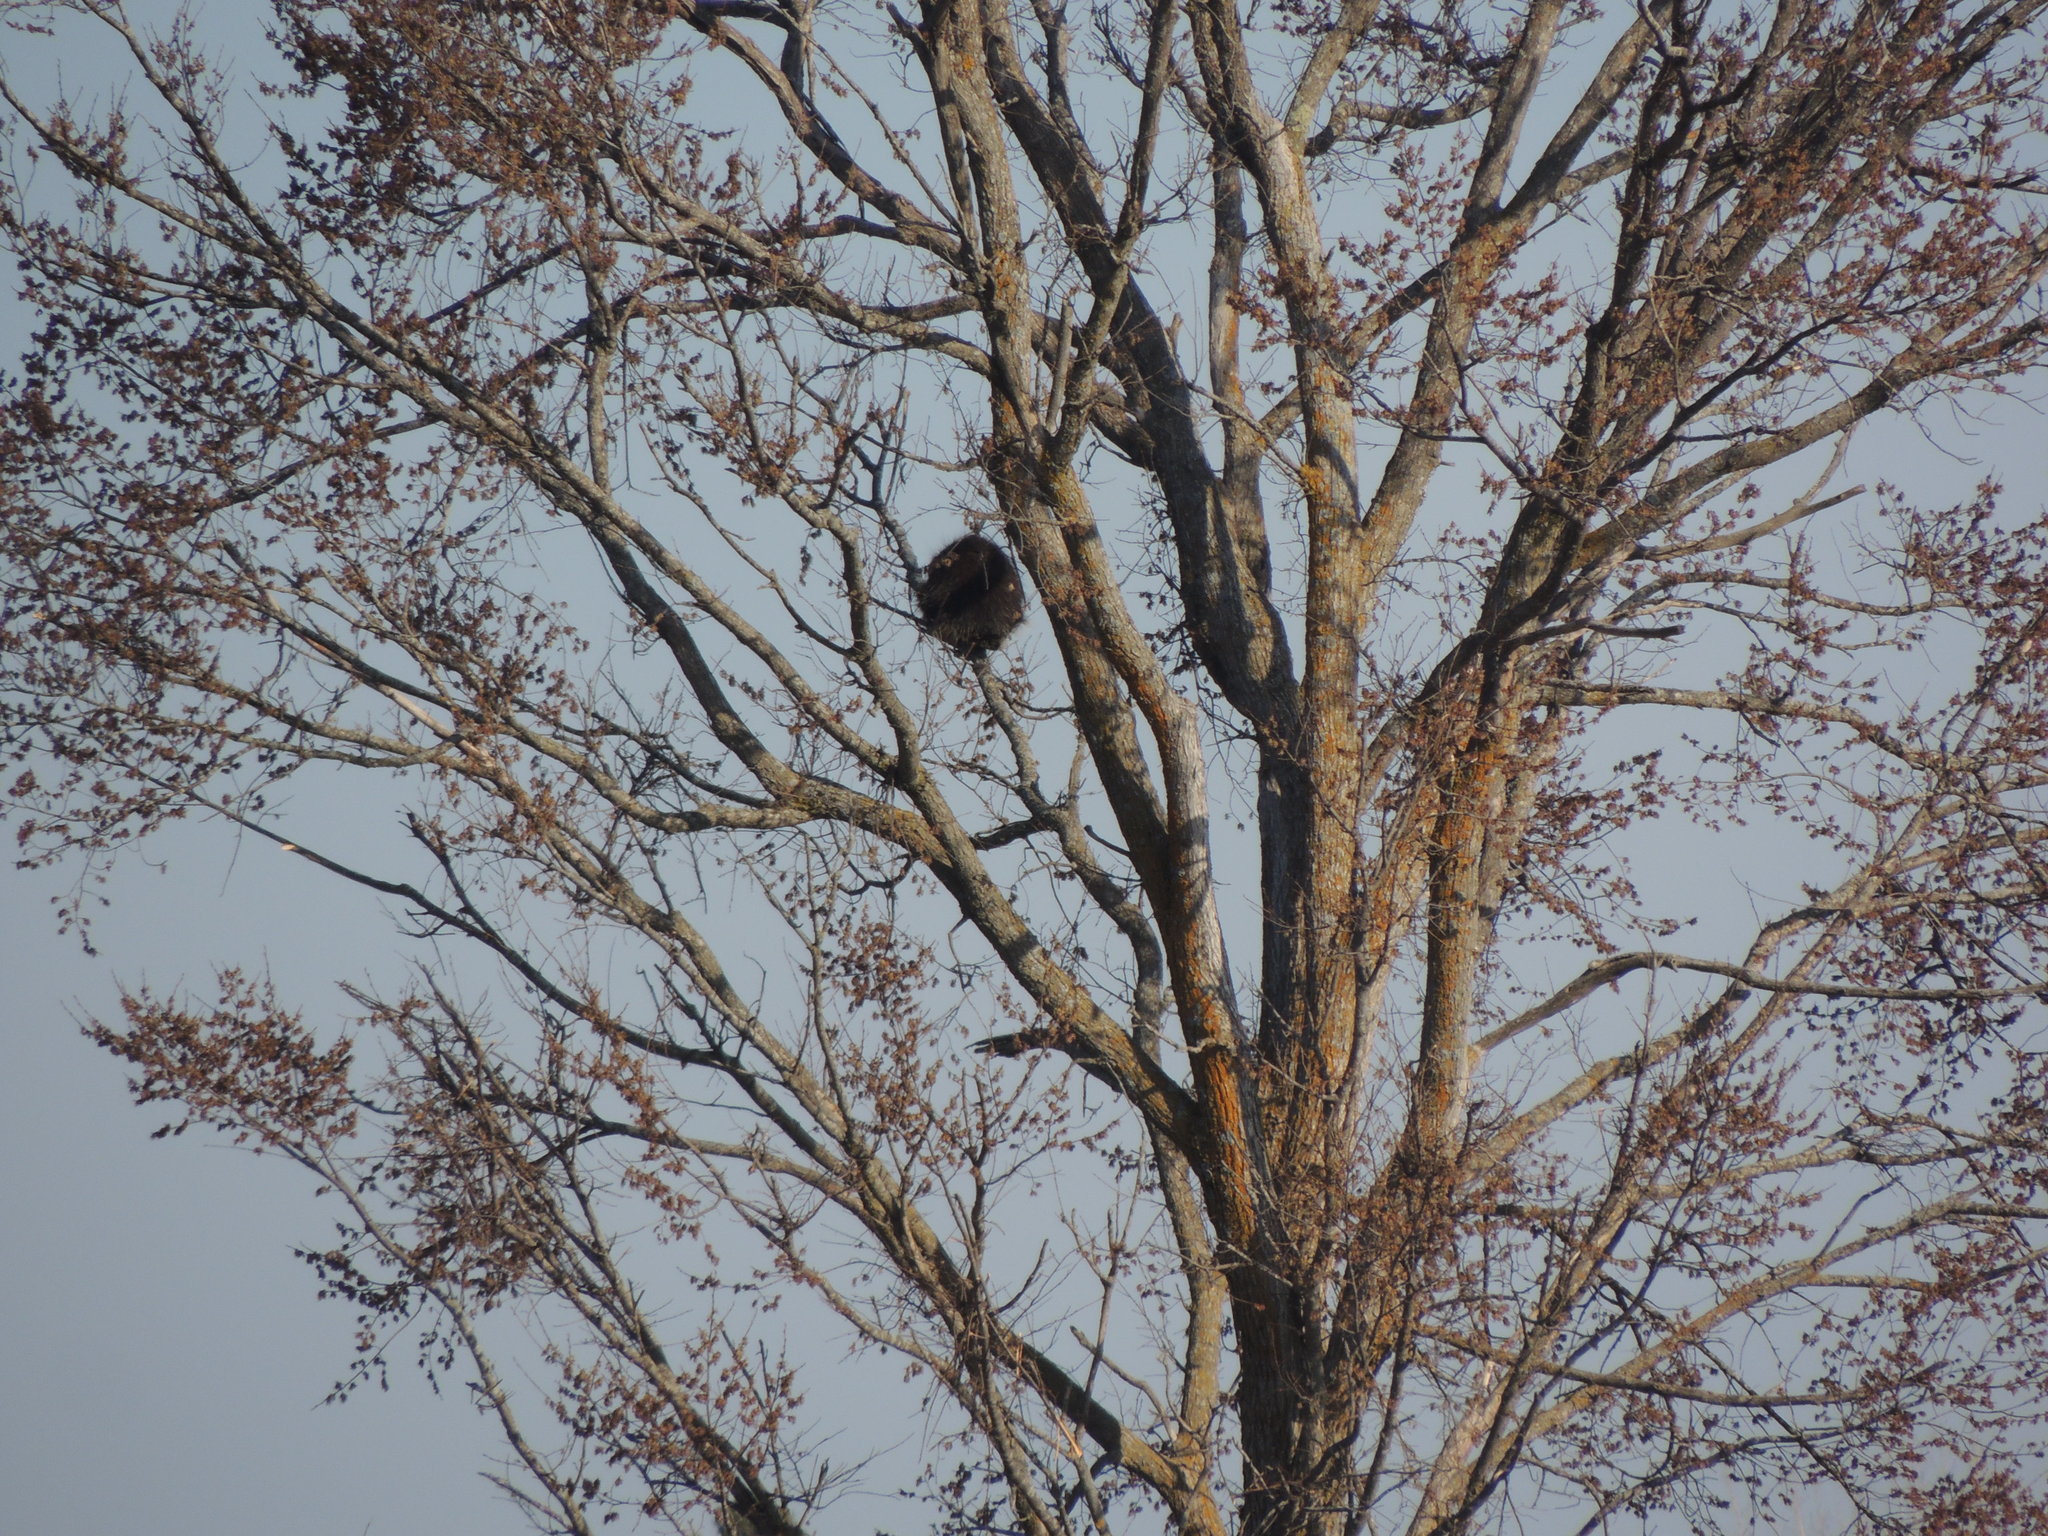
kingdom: Animalia
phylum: Chordata
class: Mammalia
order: Rodentia
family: Erethizontidae
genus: Erethizon
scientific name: Erethizon dorsatus
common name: North american porcupine
